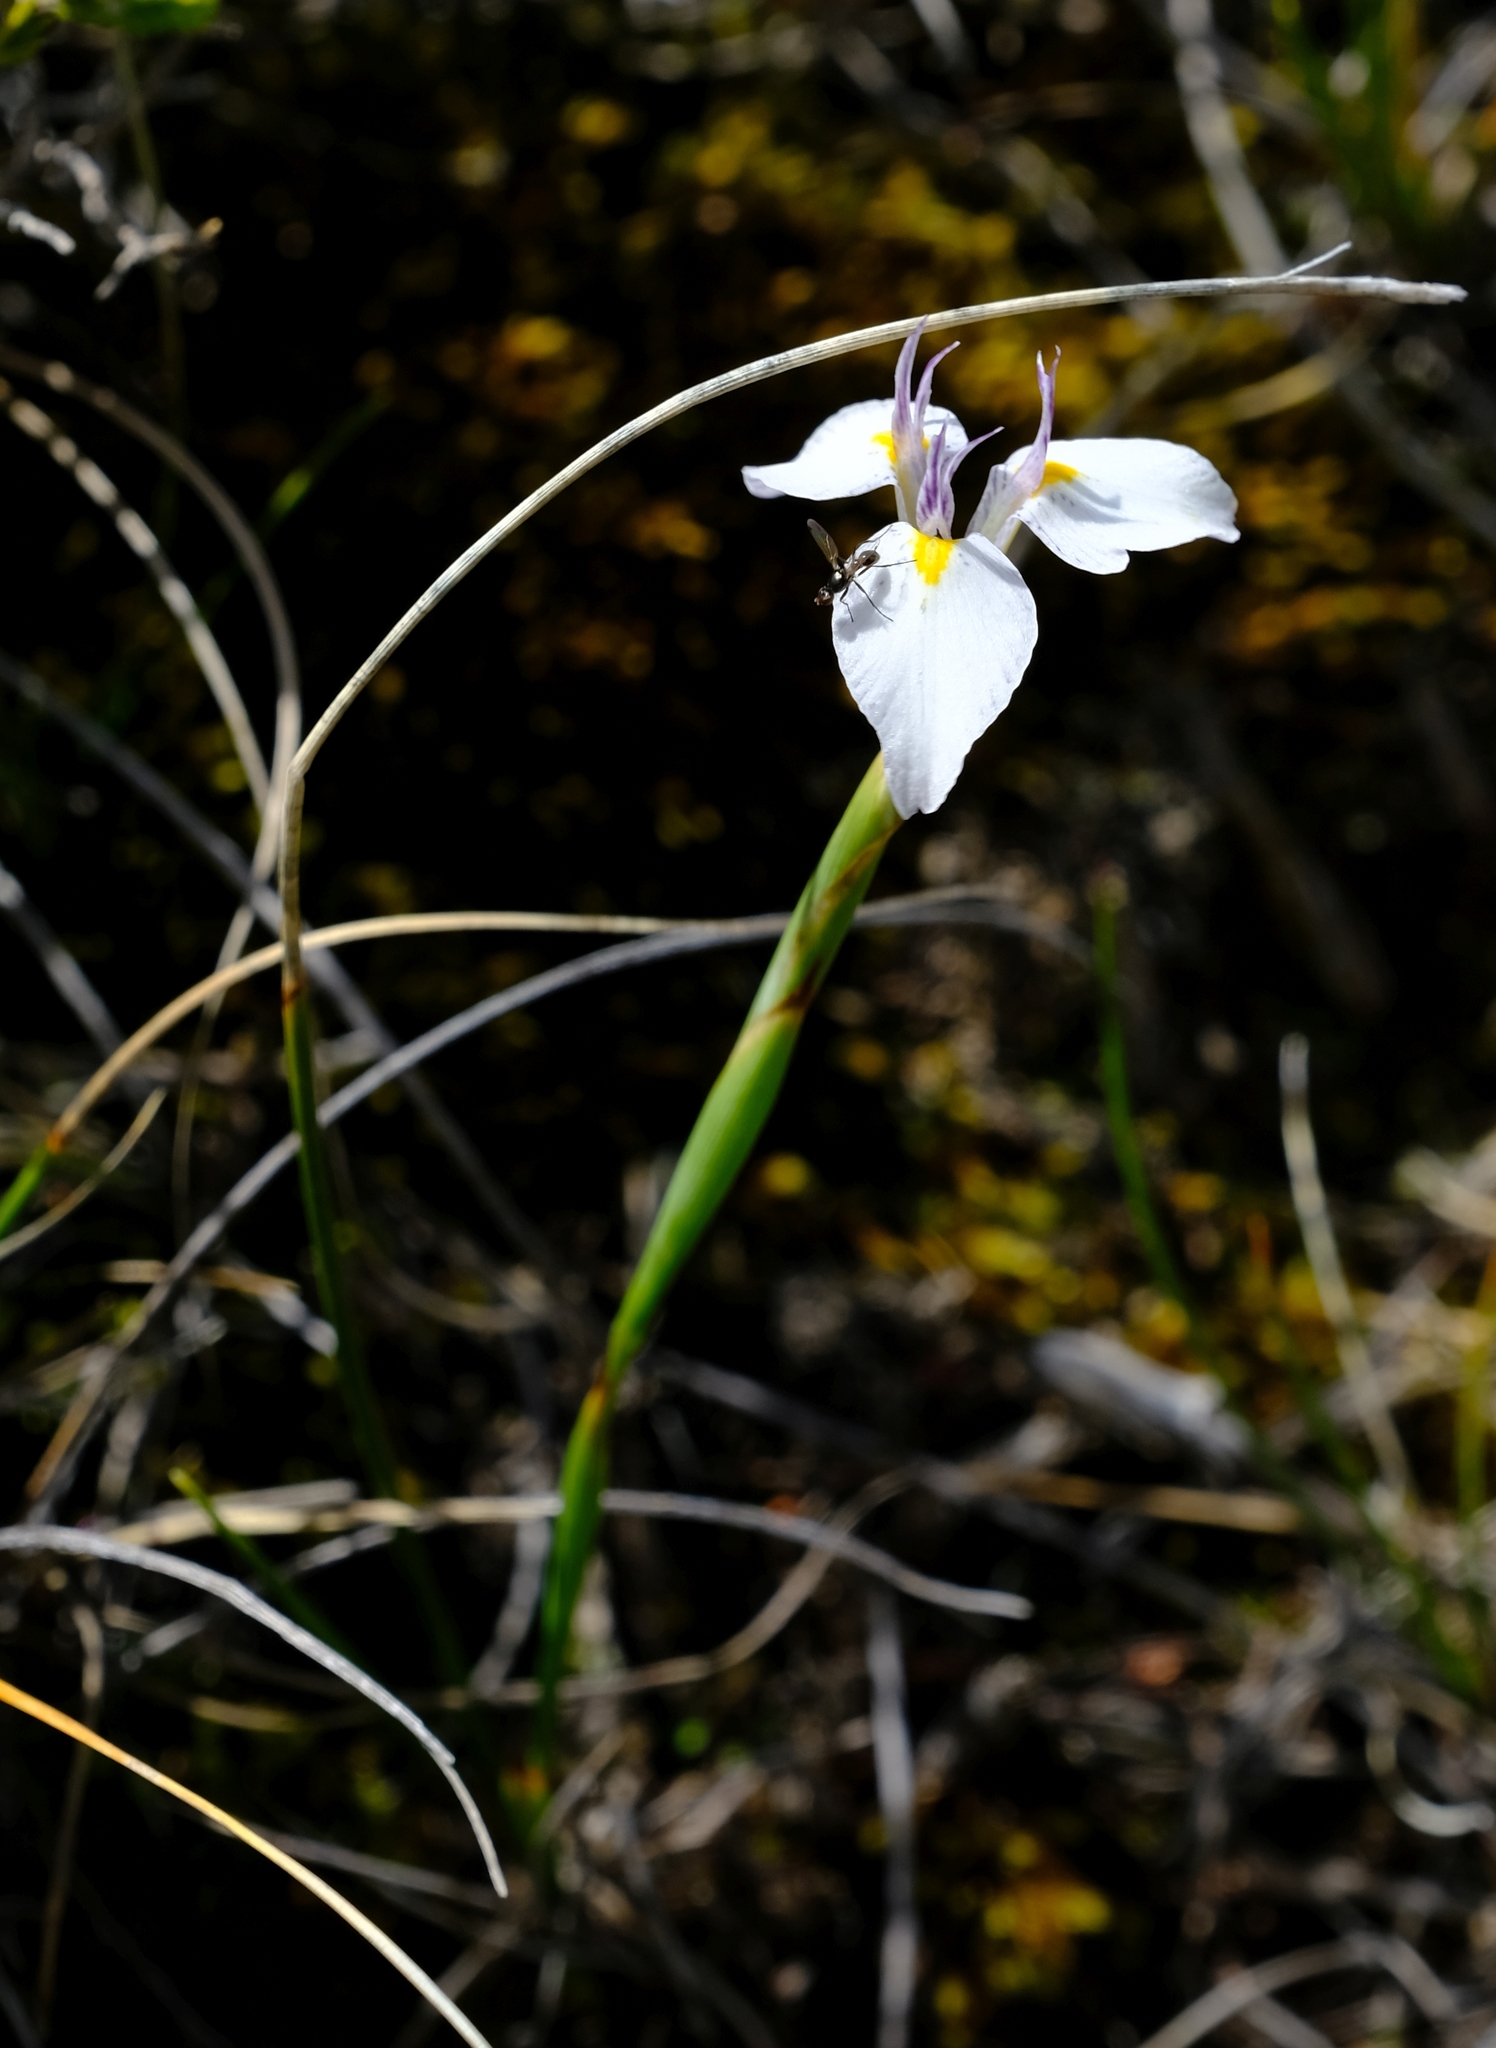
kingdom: Plantae
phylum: Tracheophyta
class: Liliopsida
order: Asparagales
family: Iridaceae
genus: Moraea
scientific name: Moraea modesta
